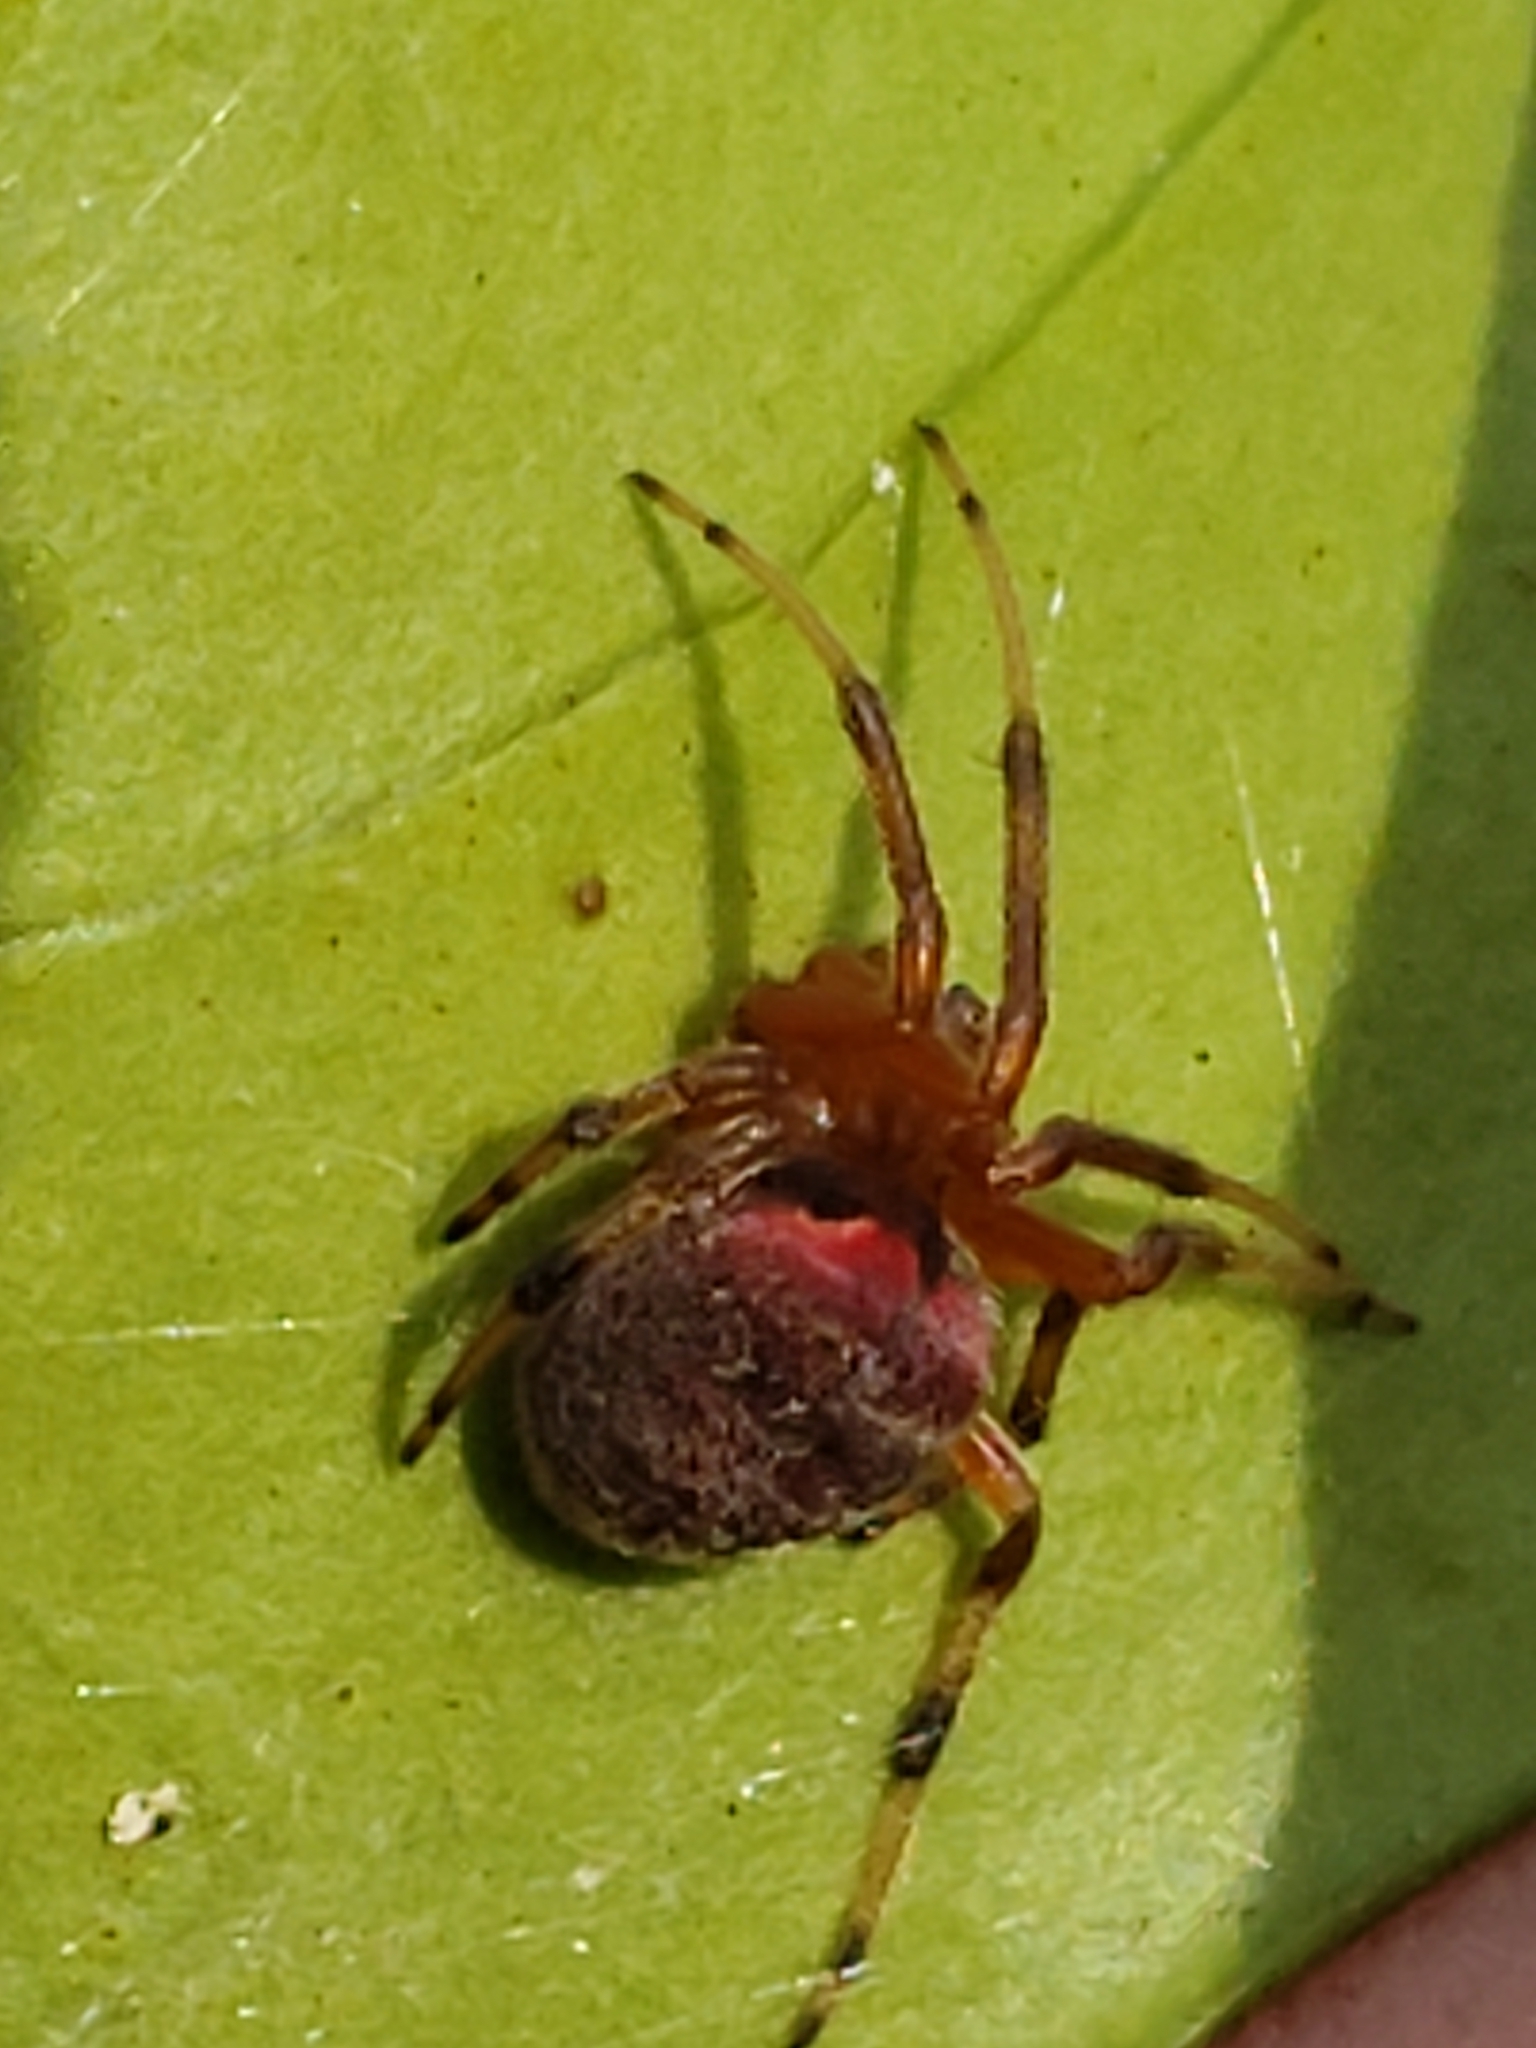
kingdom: Animalia
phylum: Arthropoda
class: Arachnida
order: Araneae
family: Araneidae
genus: Araneus
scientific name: Araneus thaddeus
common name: Lattice orbweaver
